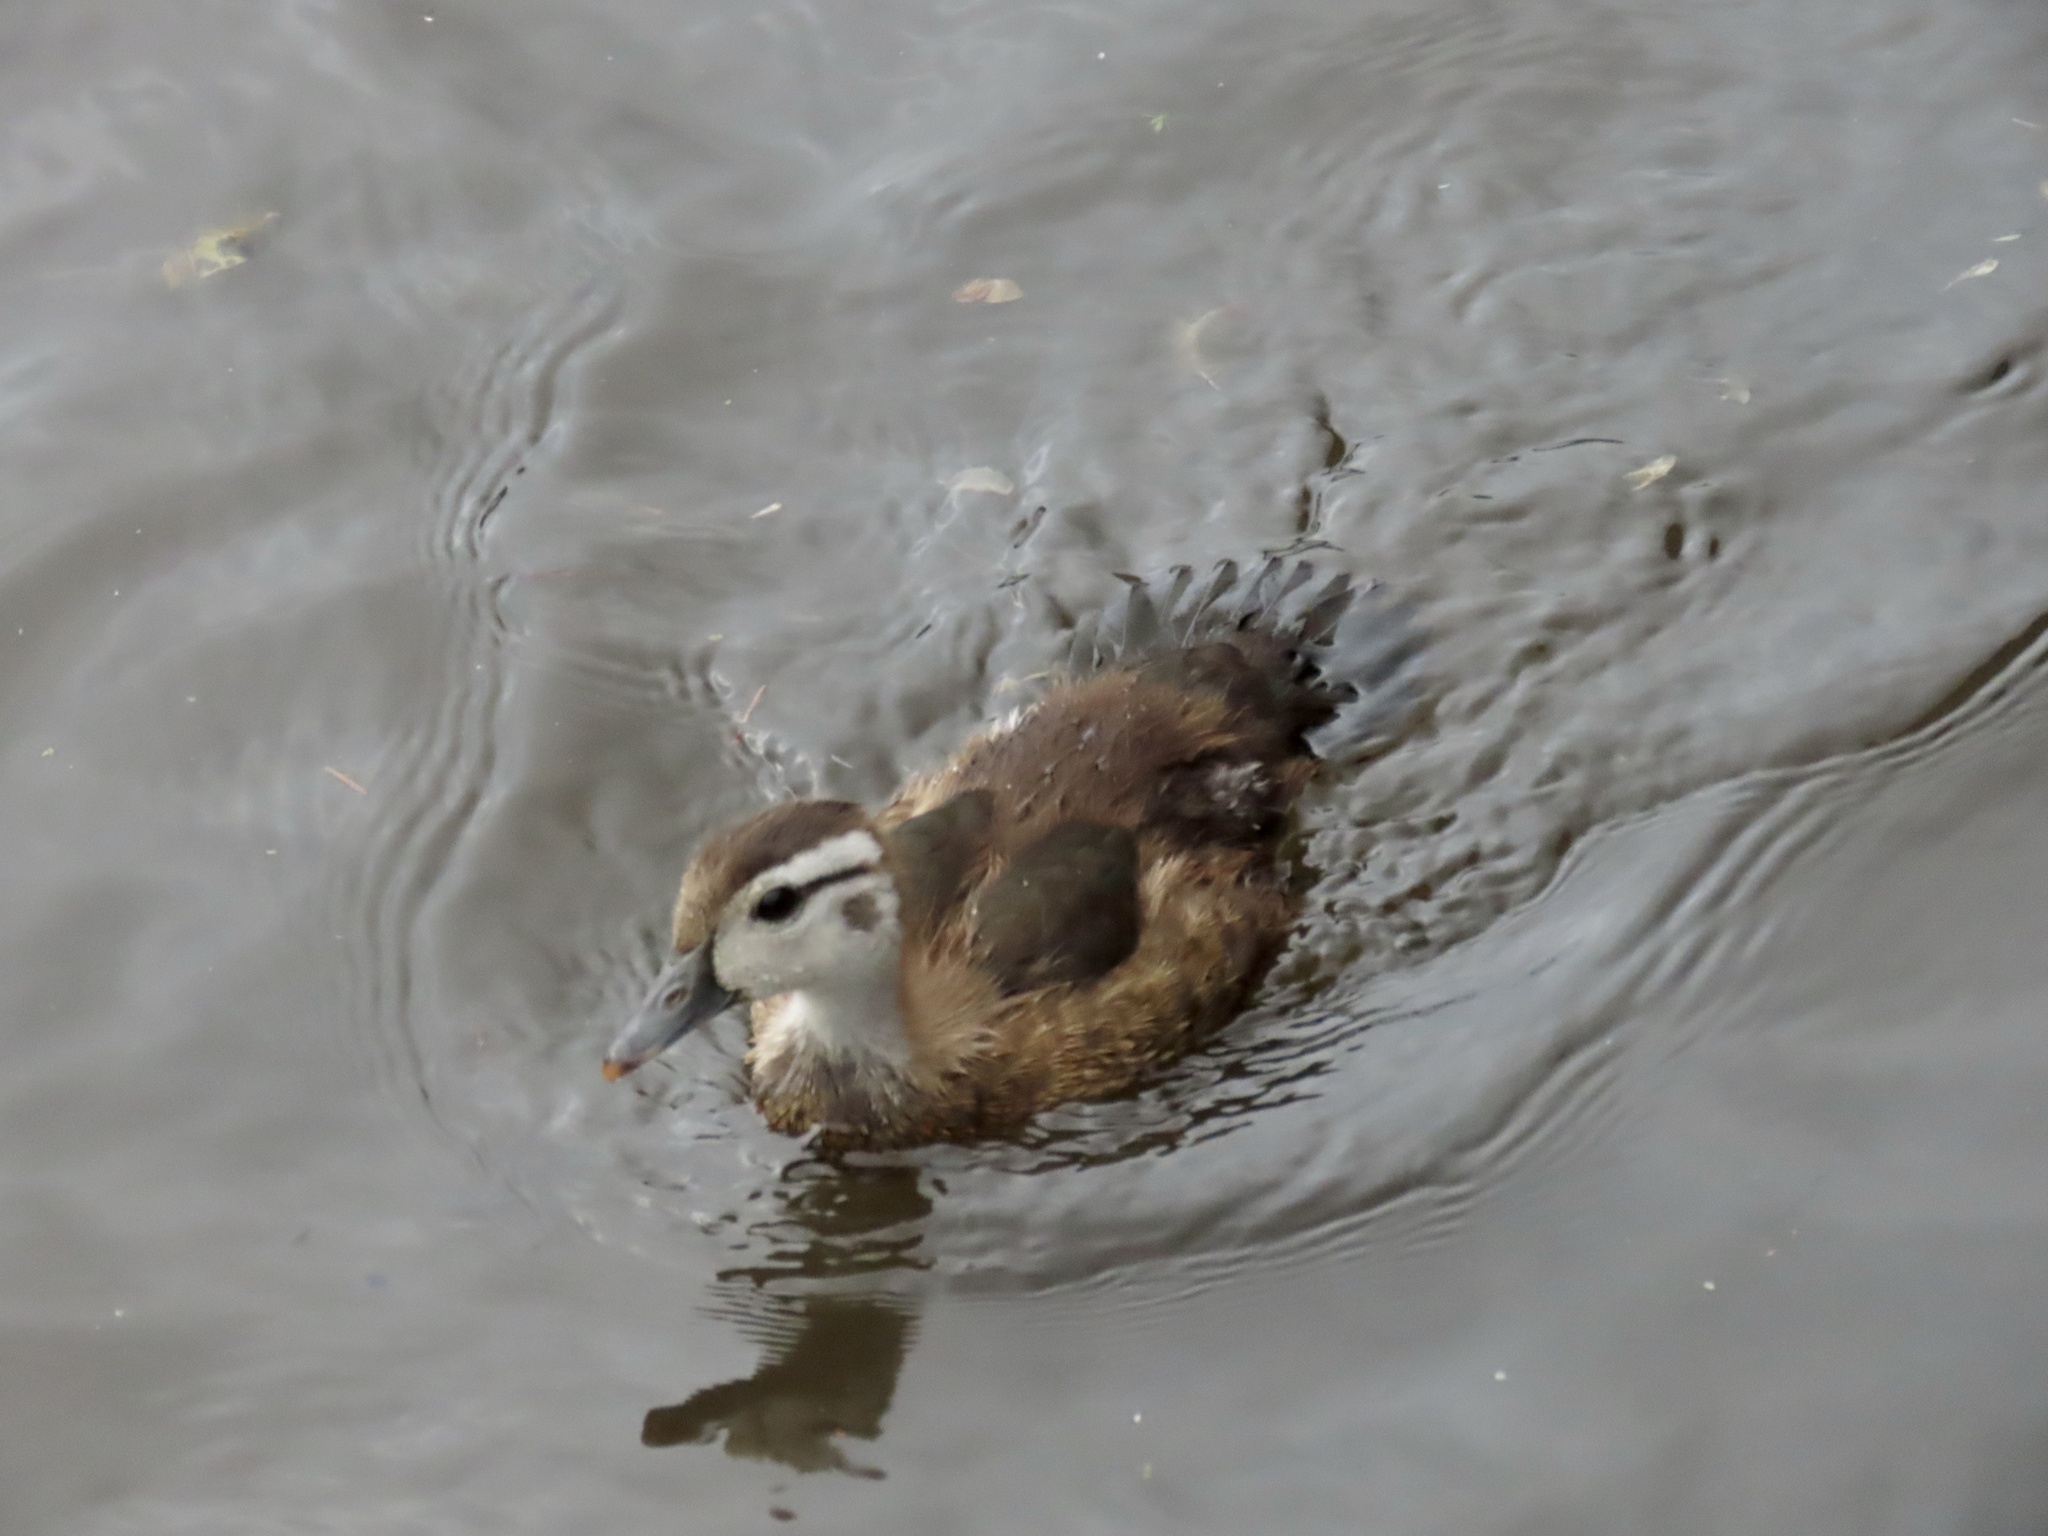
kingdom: Animalia
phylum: Chordata
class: Aves
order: Anseriformes
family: Anatidae
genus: Aix
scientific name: Aix sponsa
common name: Wood duck
